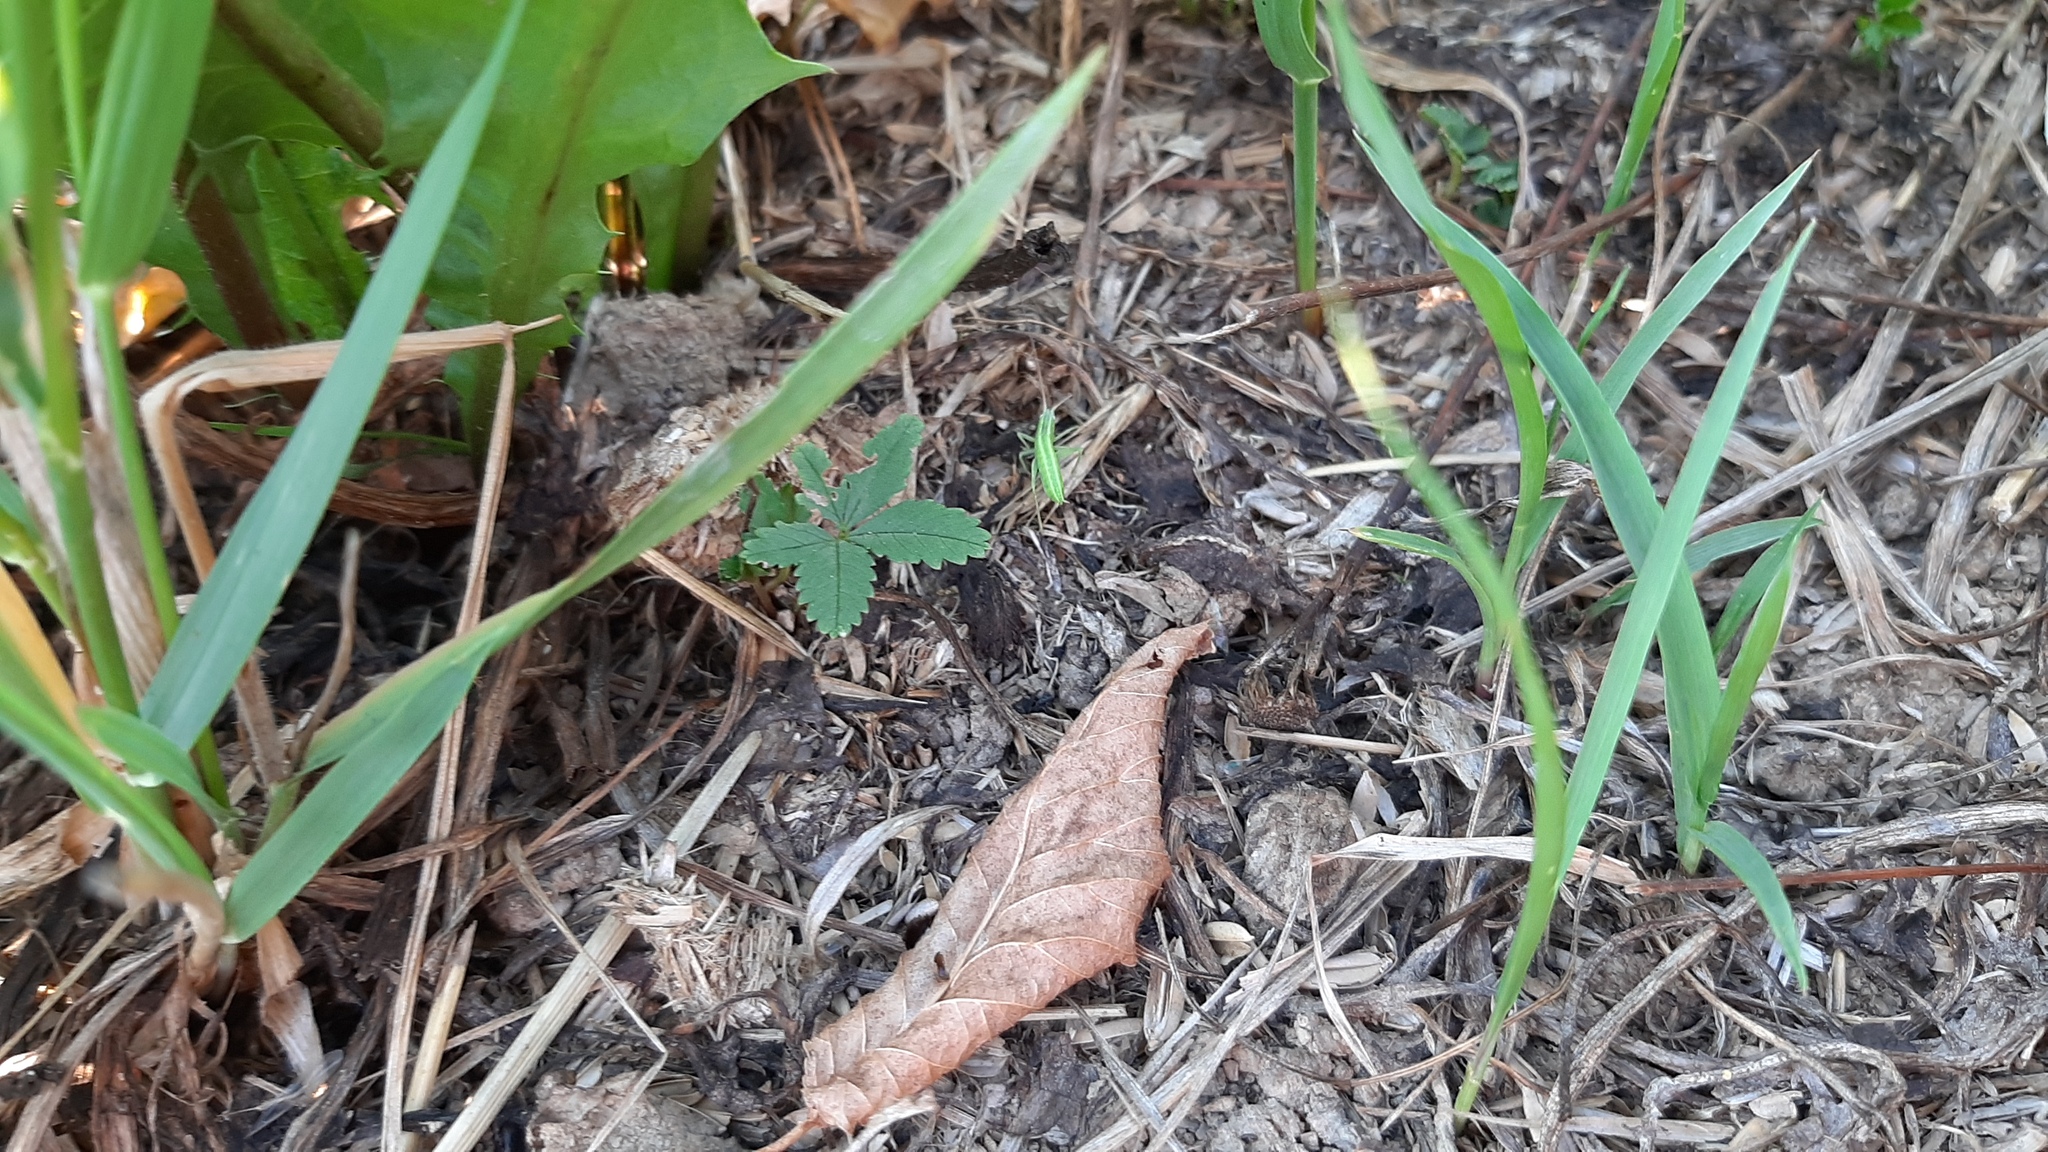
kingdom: Animalia
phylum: Arthropoda
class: Insecta
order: Orthoptera
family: Tettigoniidae
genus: Ruspolia
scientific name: Ruspolia nitidula
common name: Large conehead
